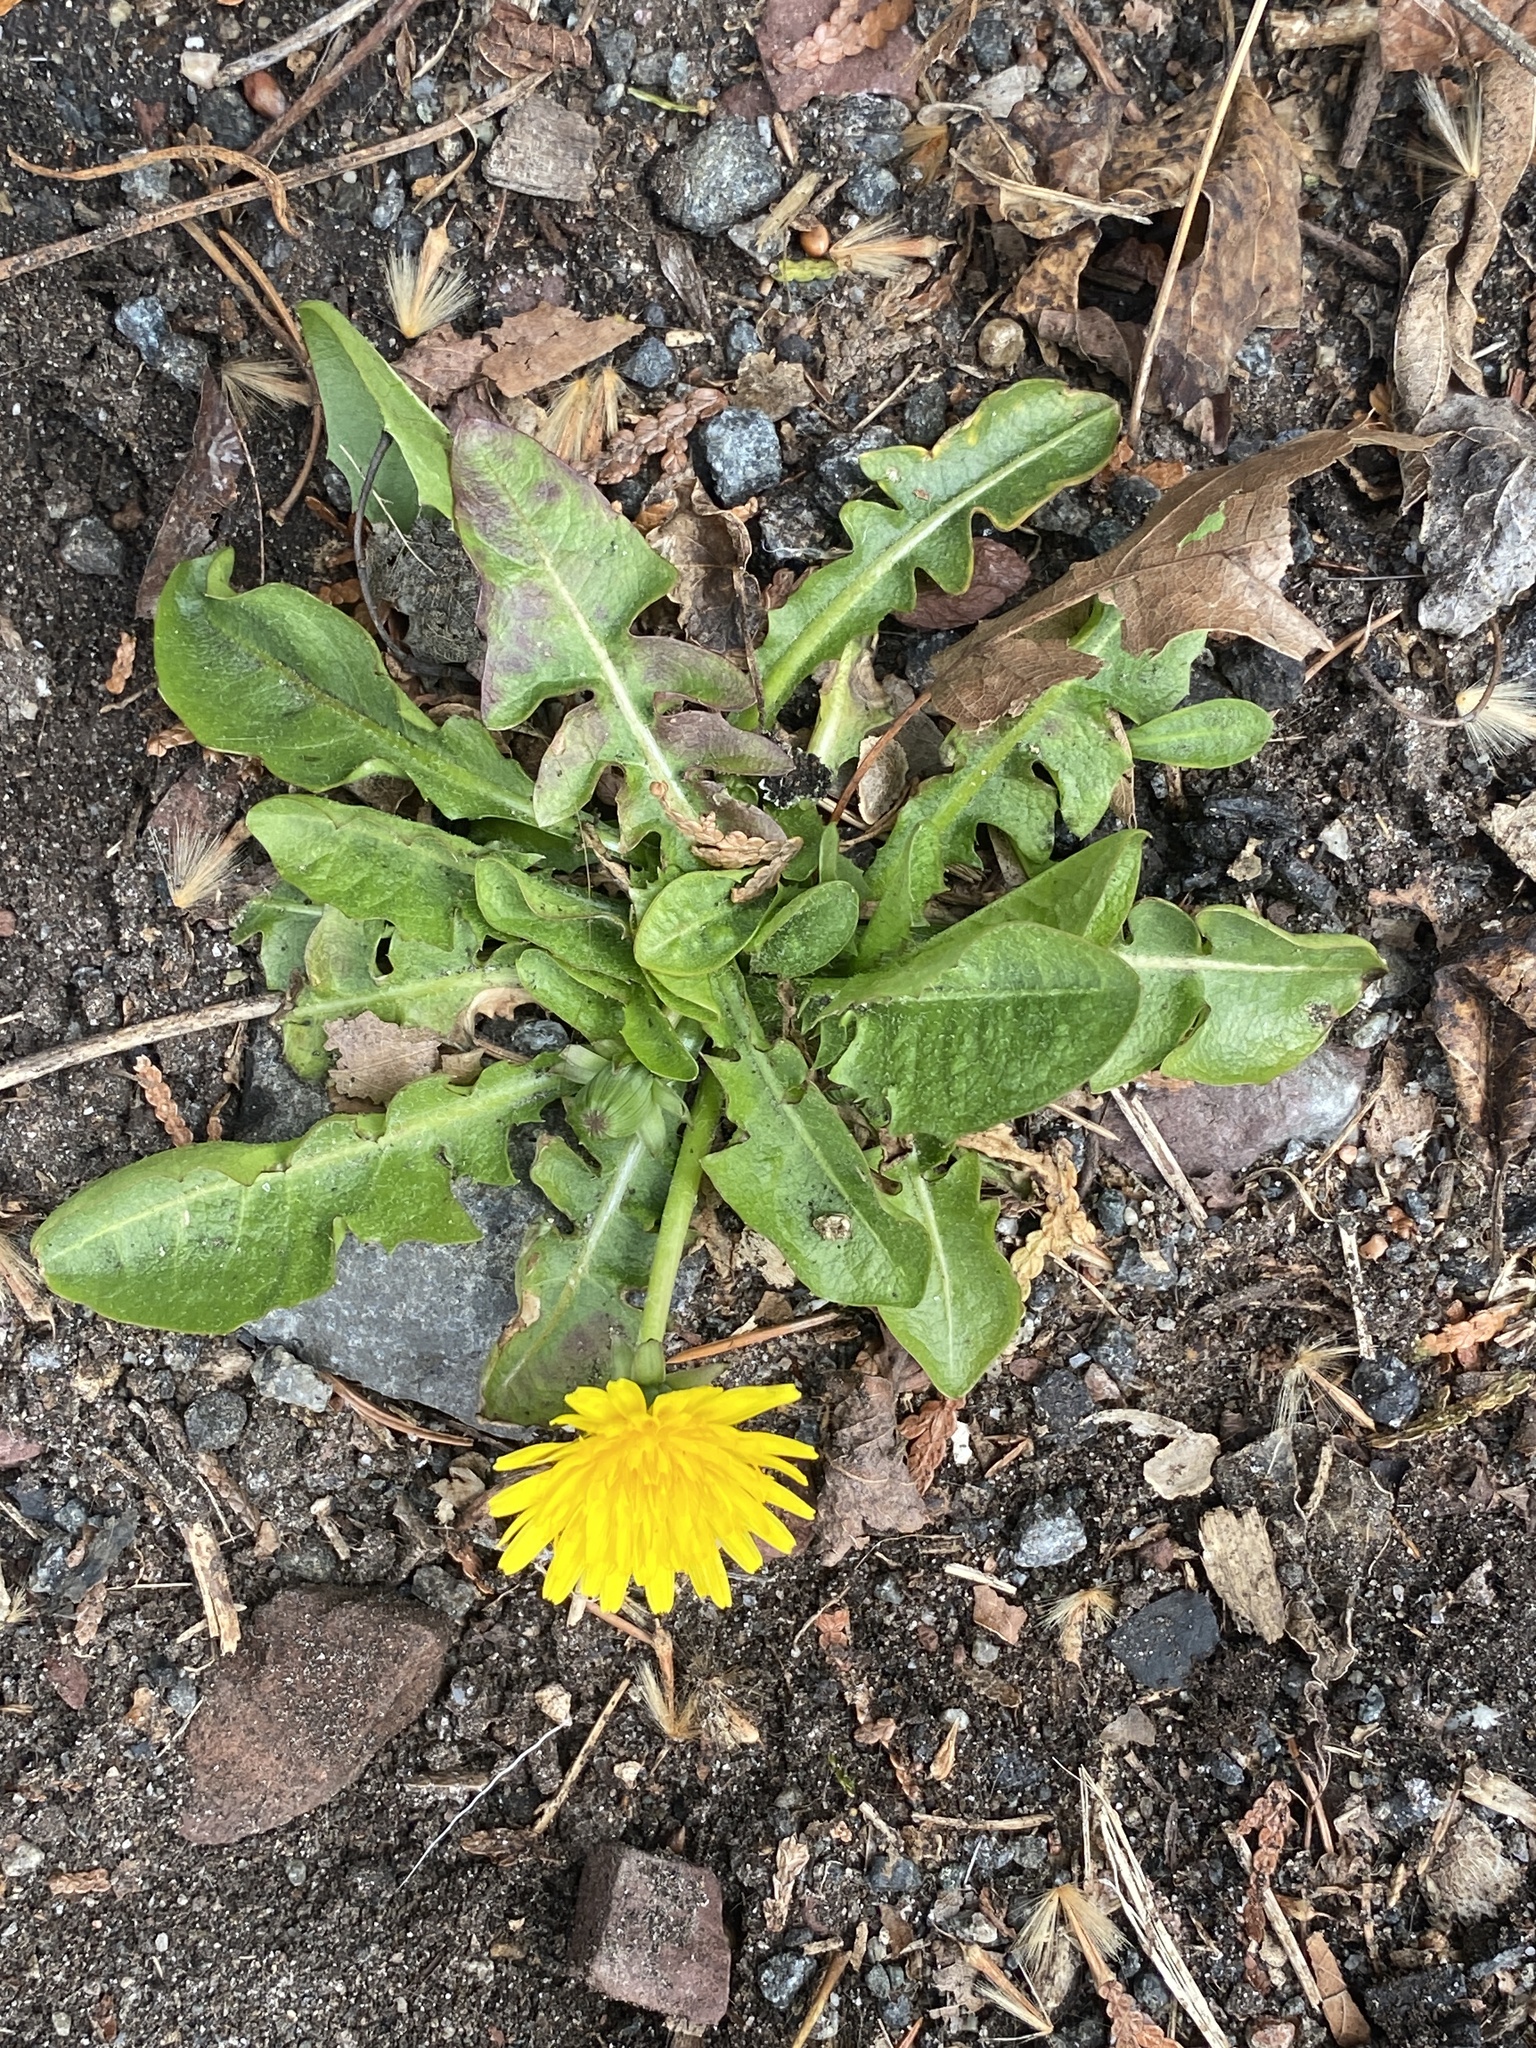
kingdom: Plantae
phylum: Tracheophyta
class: Magnoliopsida
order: Asterales
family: Asteraceae
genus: Taraxacum
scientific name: Taraxacum
